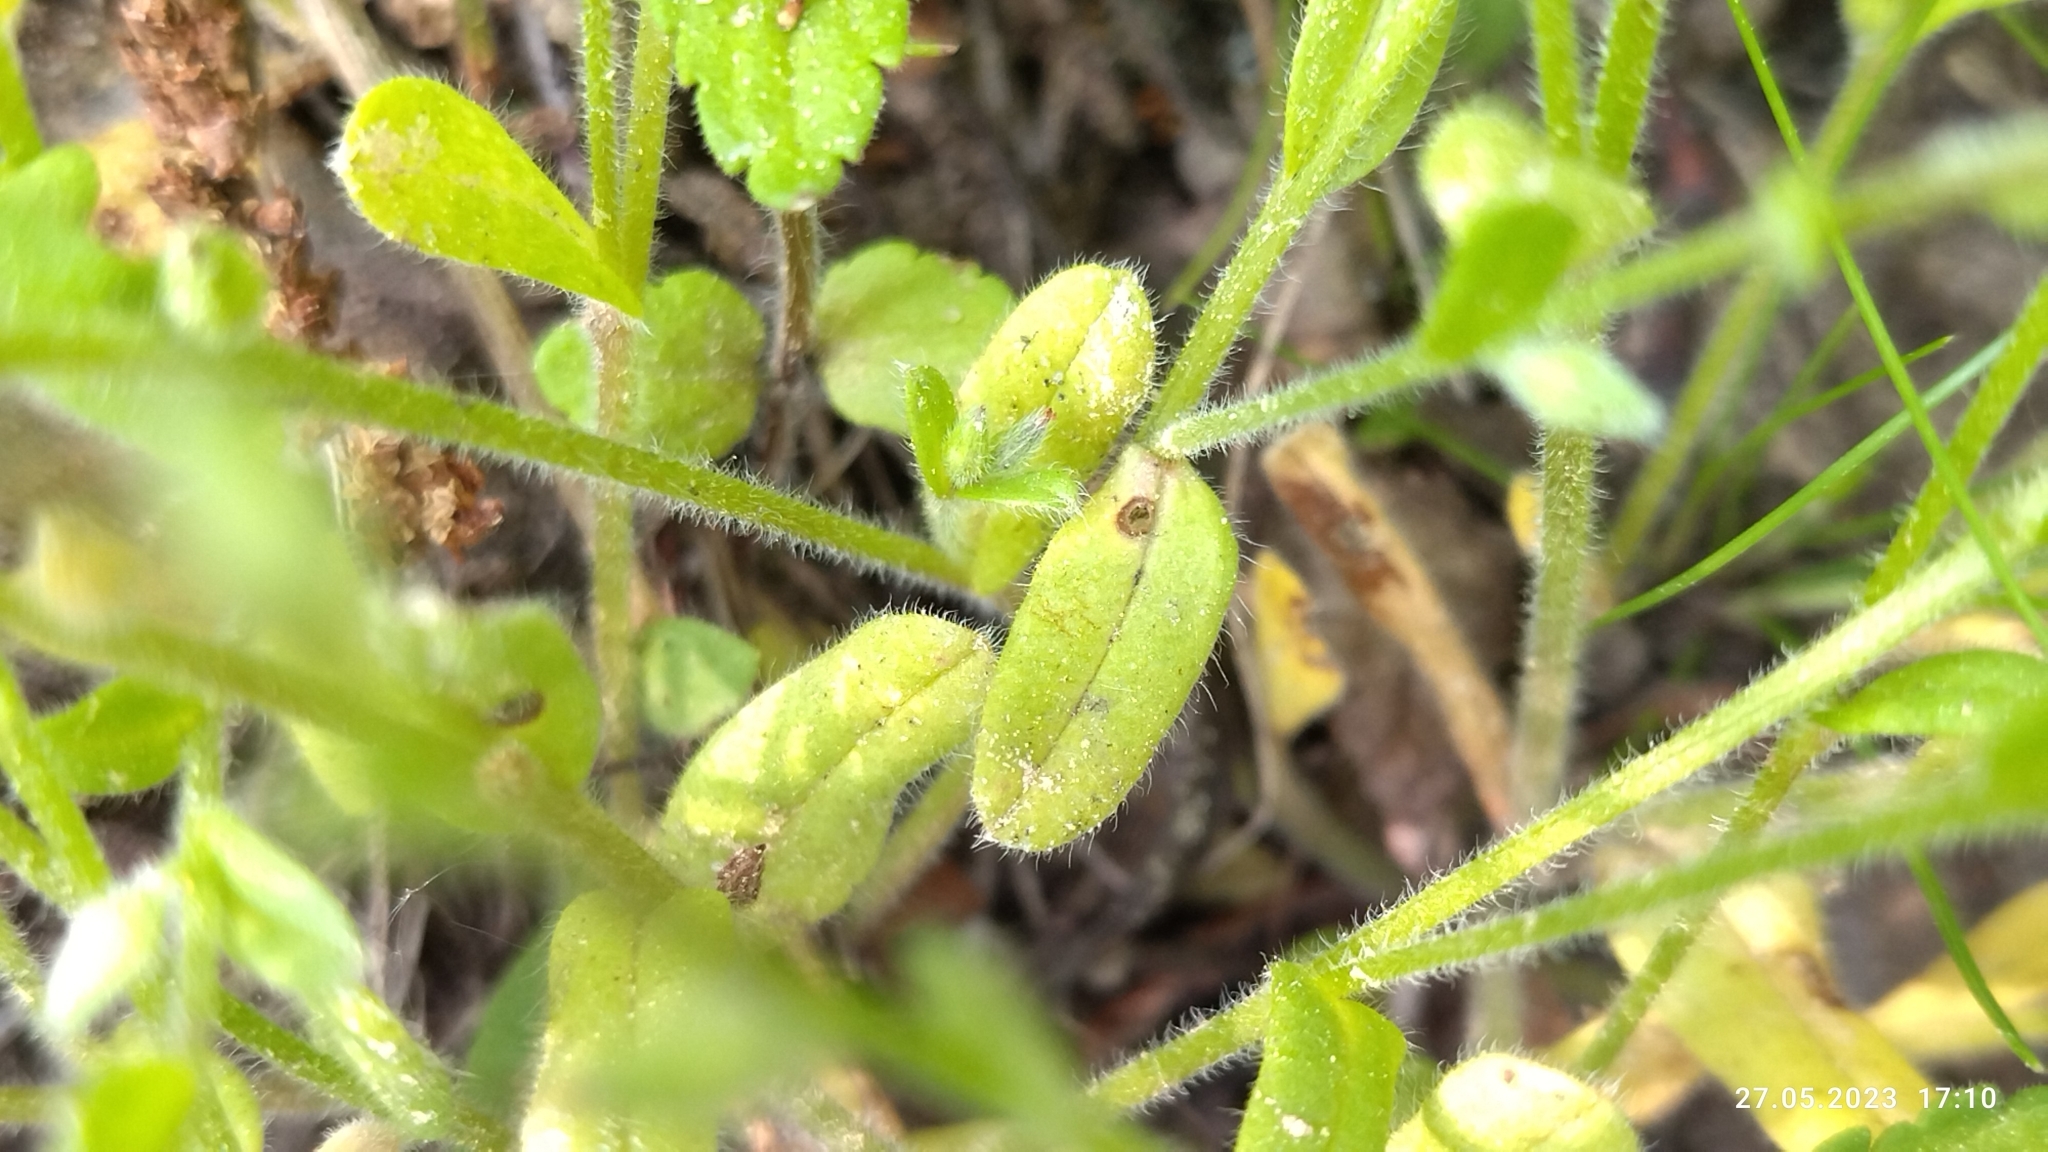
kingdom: Plantae
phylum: Tracheophyta
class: Magnoliopsida
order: Boraginales
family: Boraginaceae
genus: Myosotis
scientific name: Myosotis stricta
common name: Strict forget-me-not
